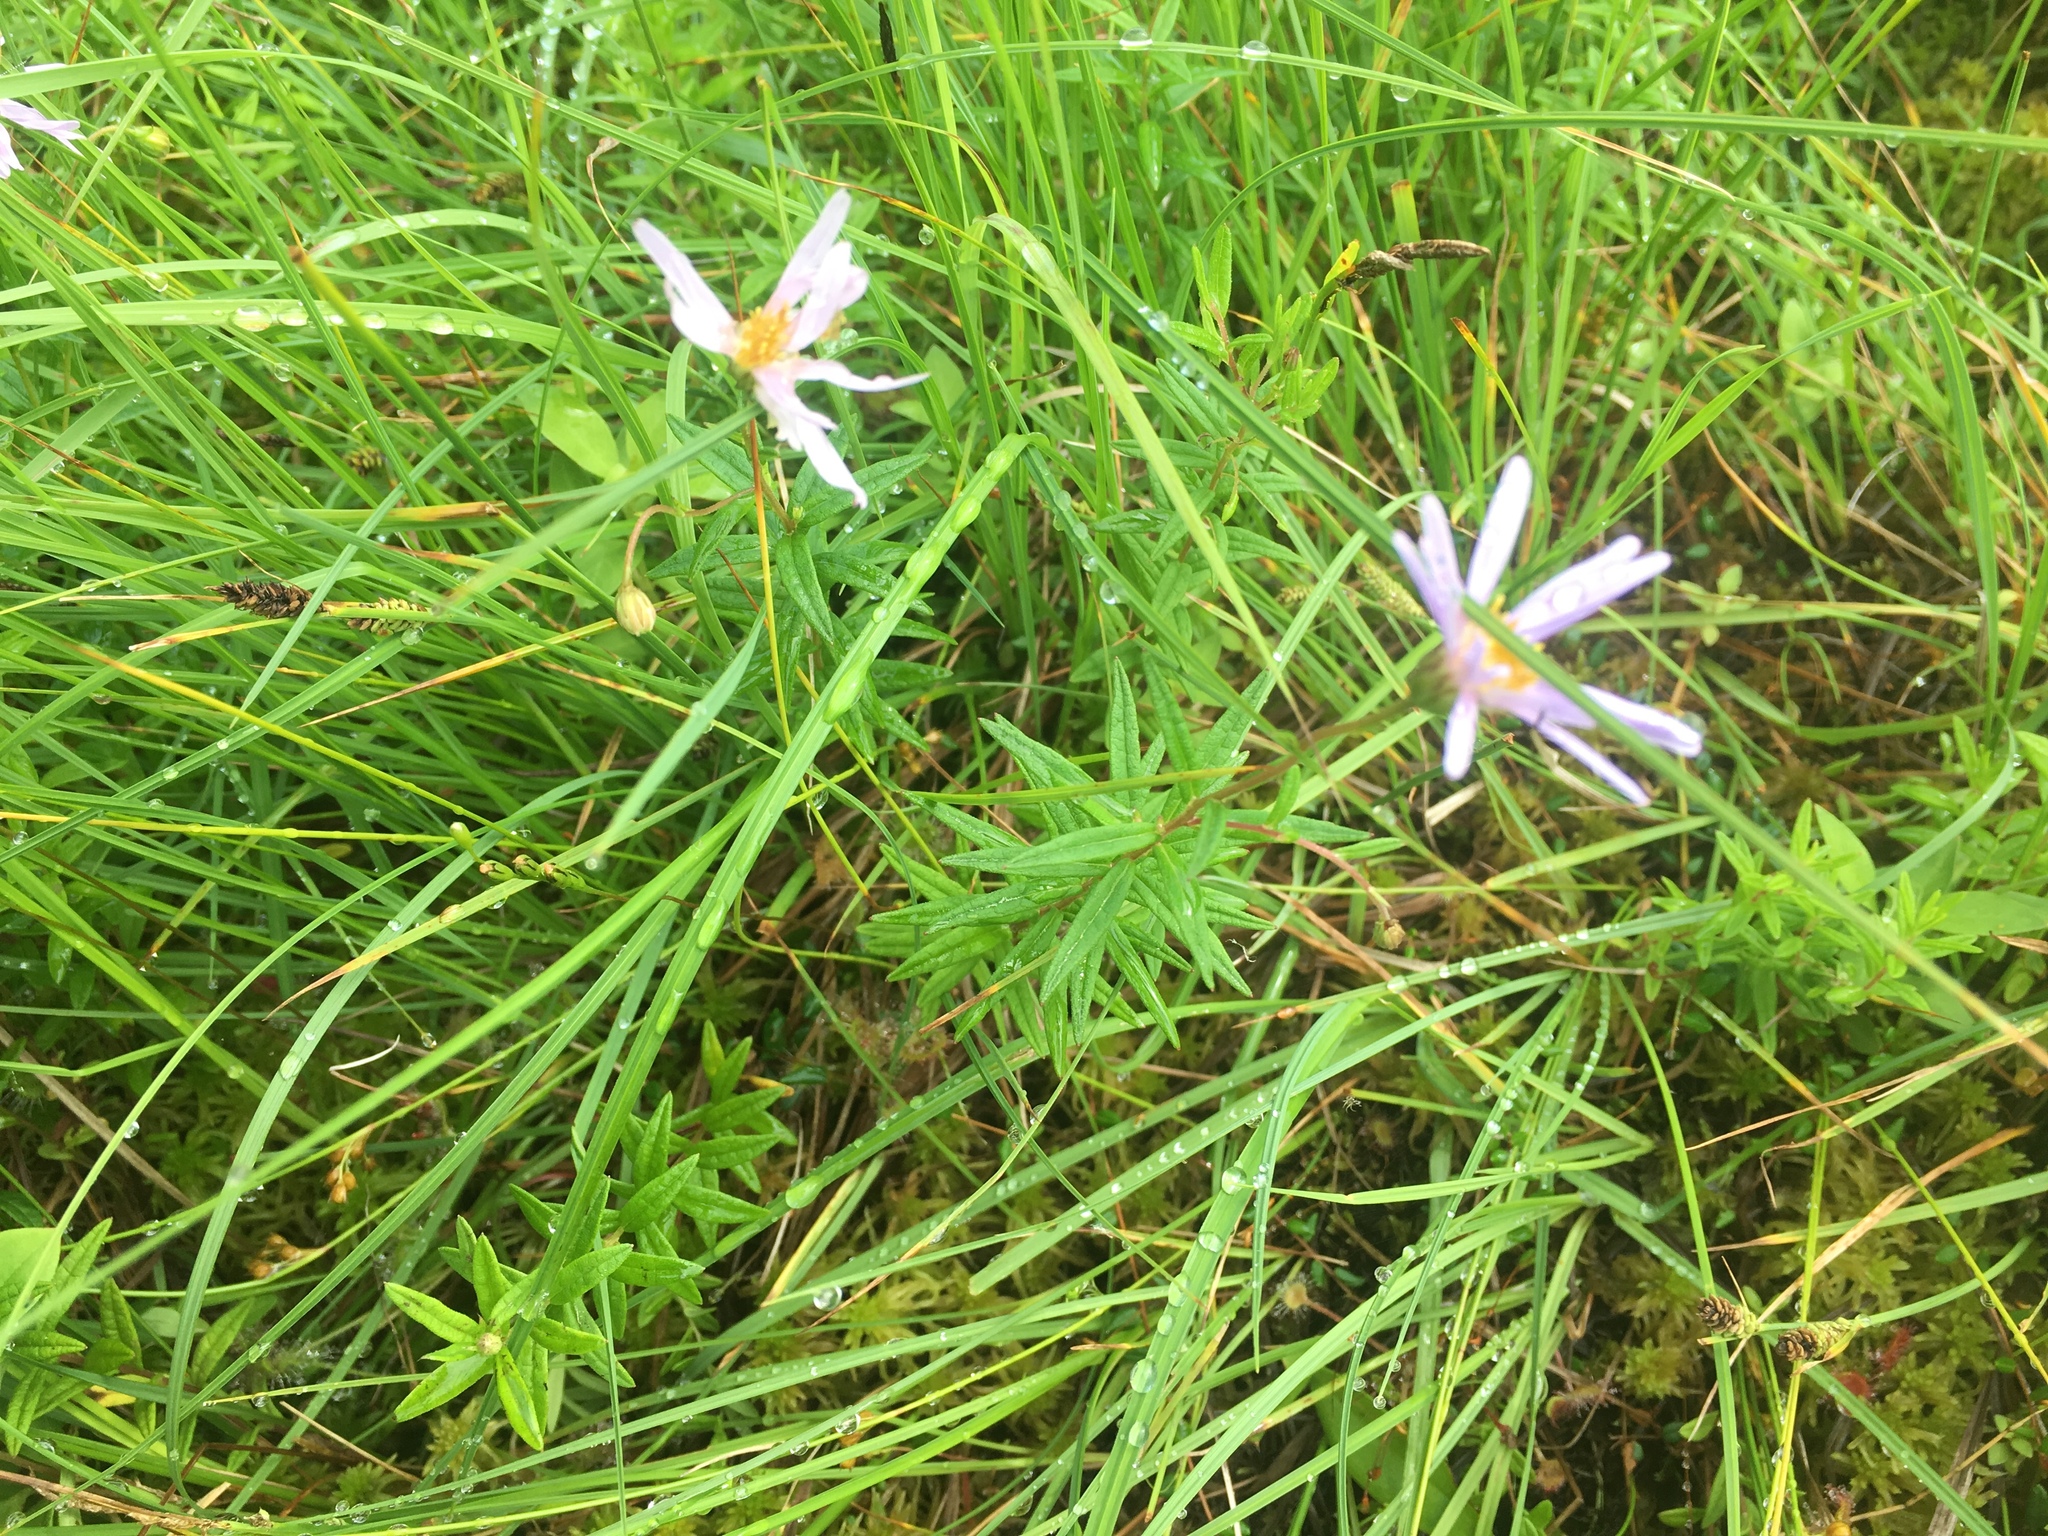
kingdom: Plantae
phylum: Tracheophyta
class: Magnoliopsida
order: Asterales
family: Asteraceae
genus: Oclemena
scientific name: Oclemena nemoralis
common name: Bog aster
